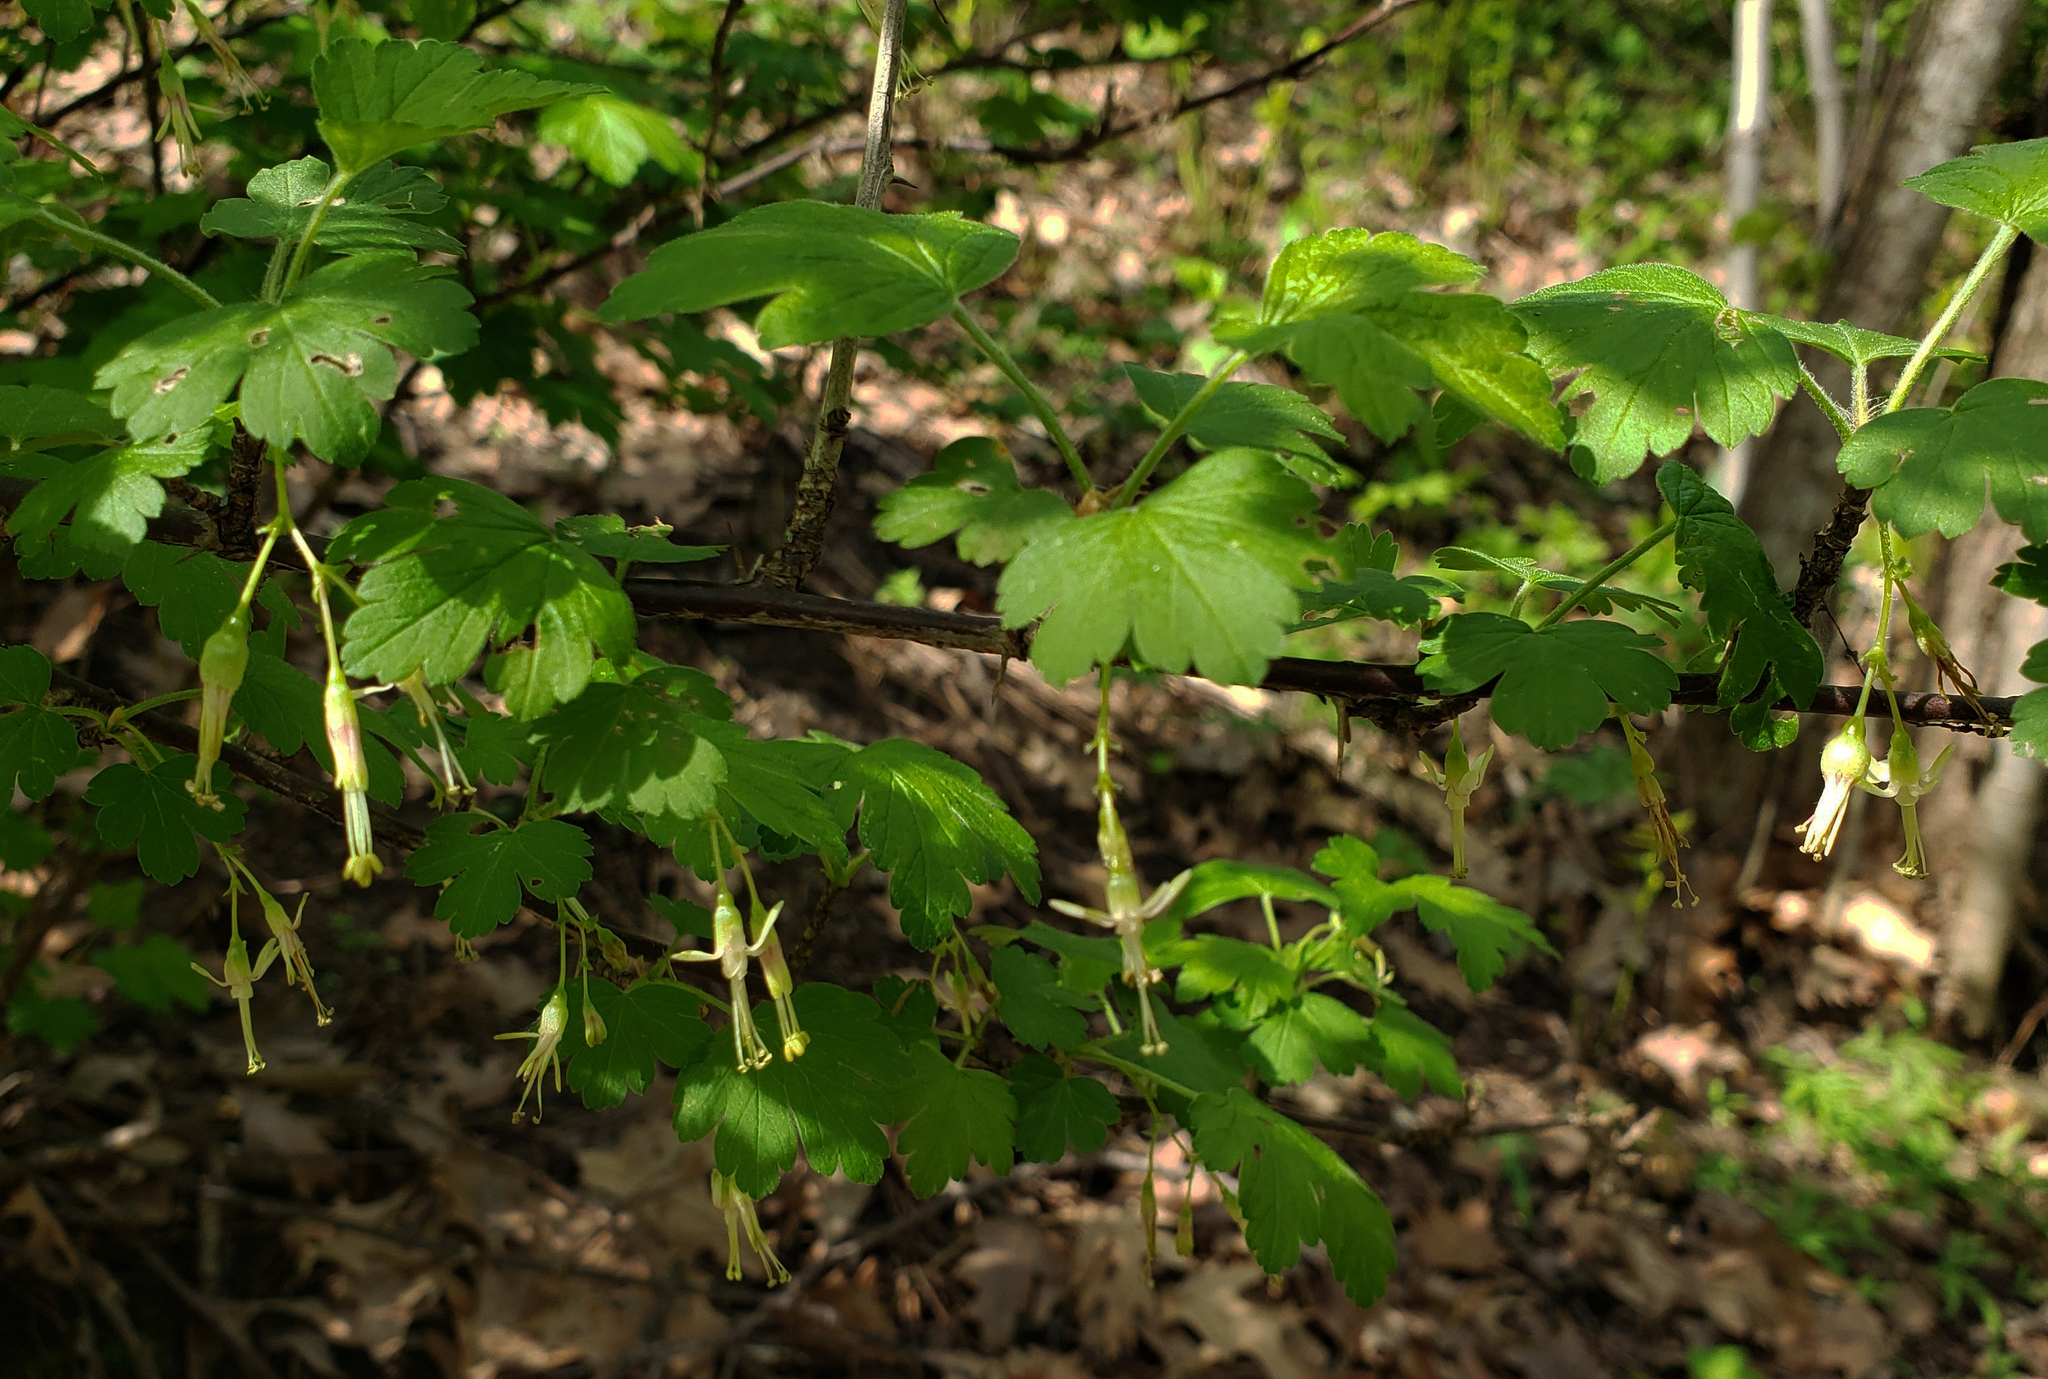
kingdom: Plantae
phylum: Tracheophyta
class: Magnoliopsida
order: Saxifragales
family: Grossulariaceae
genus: Ribes
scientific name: Ribes missouriense
